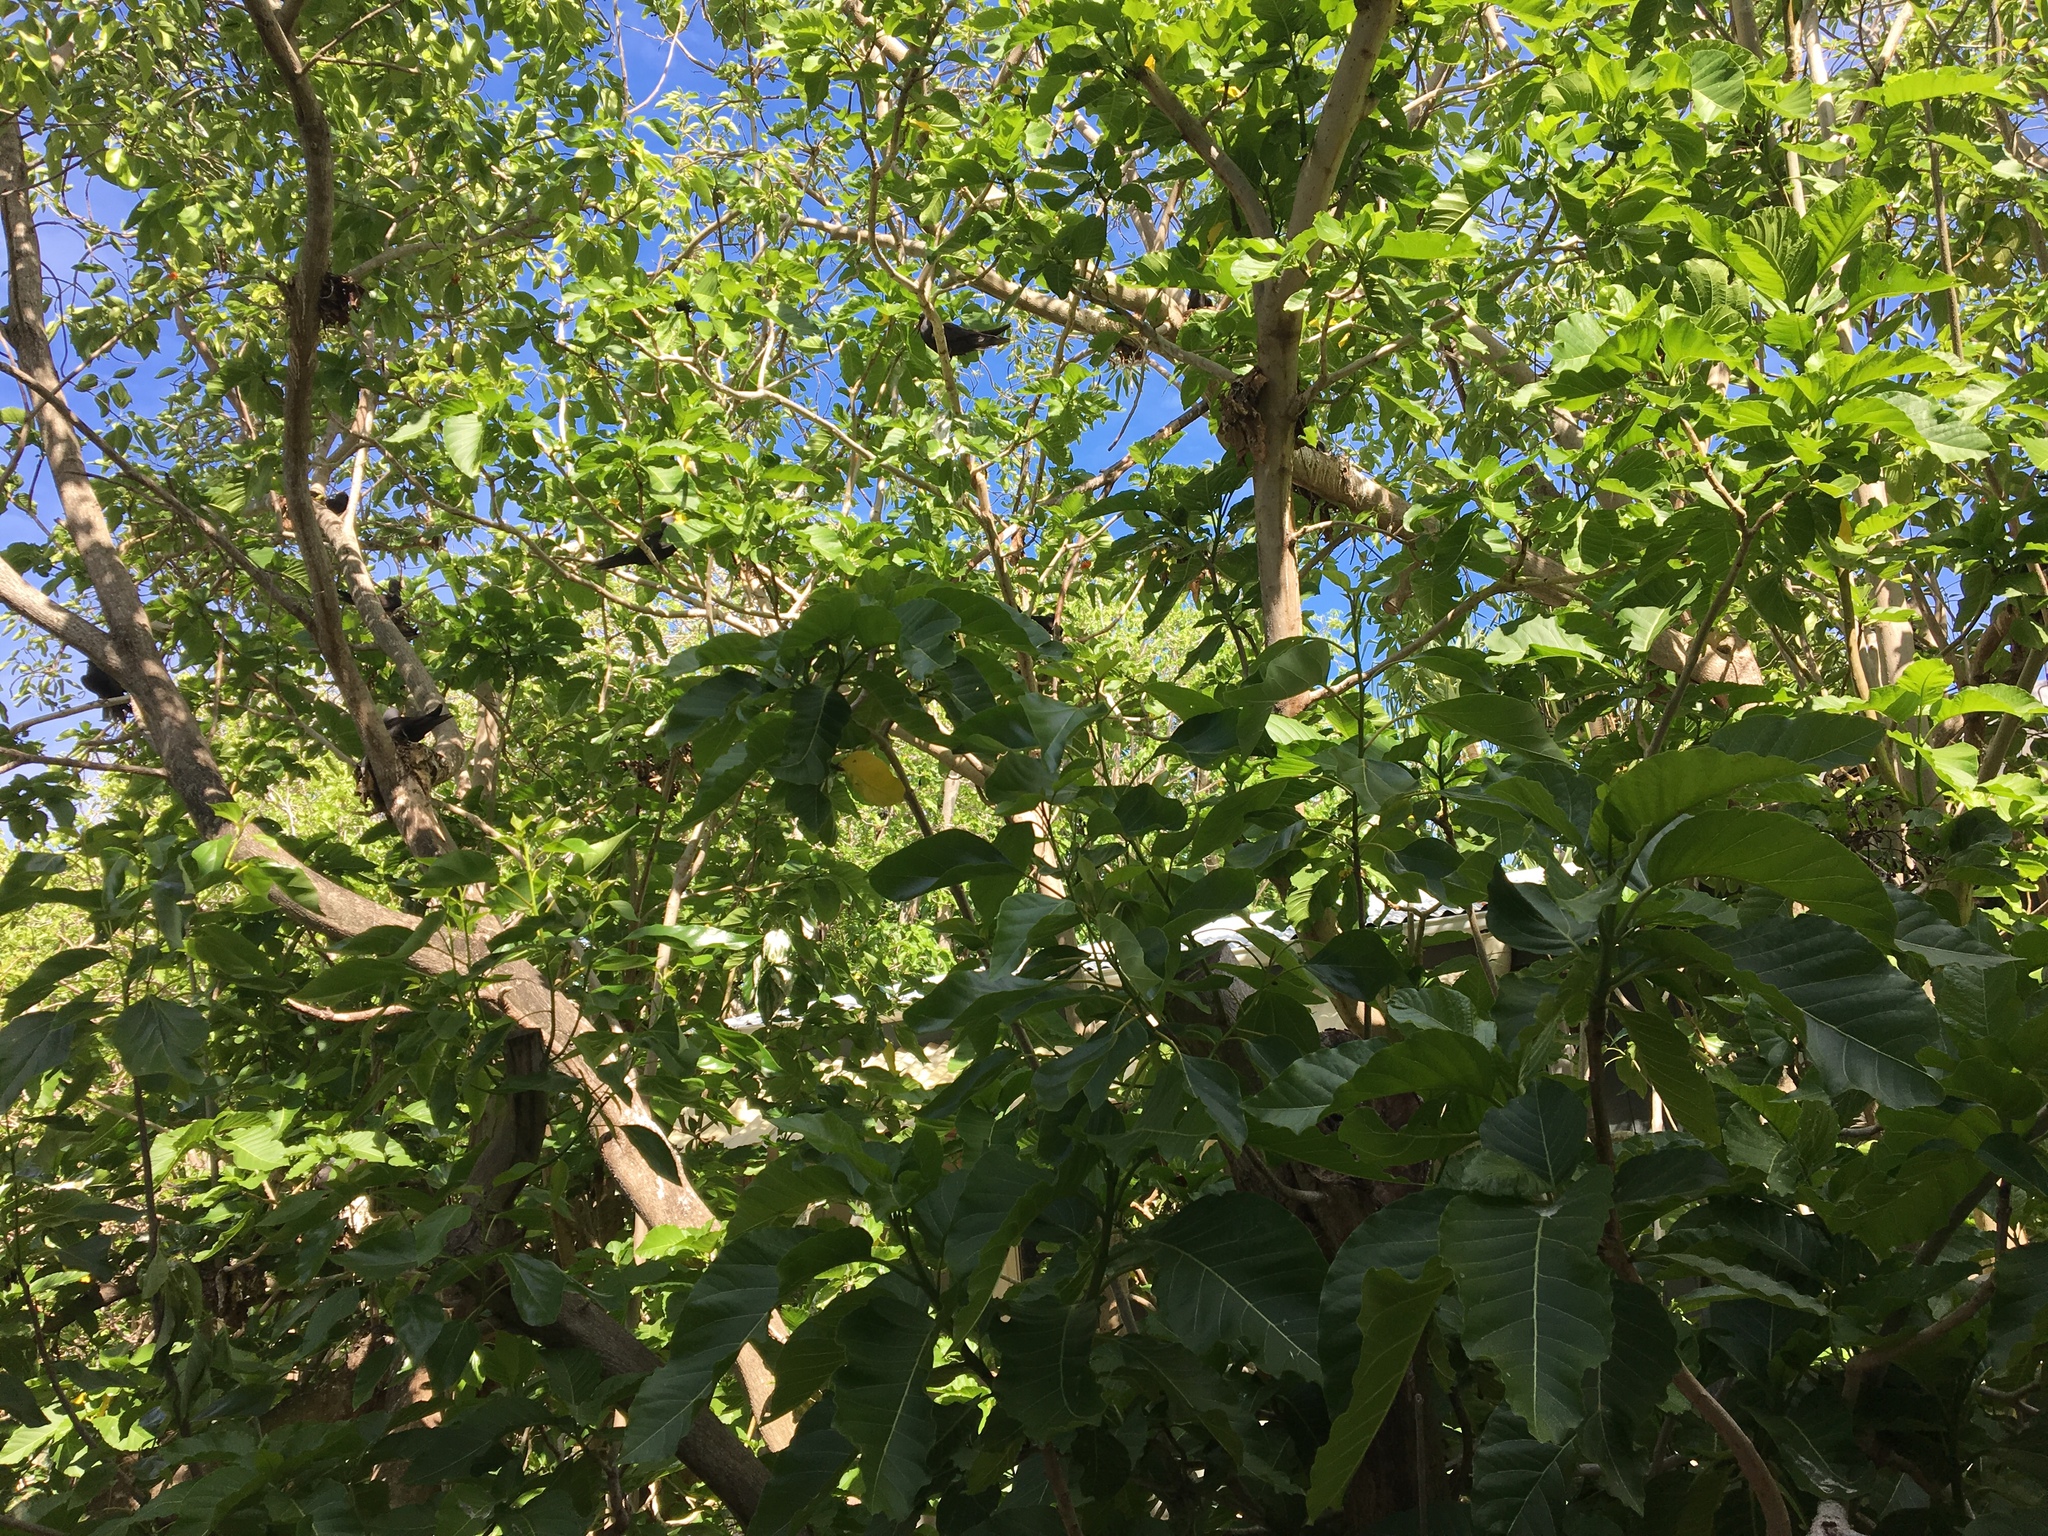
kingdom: Plantae
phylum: Tracheophyta
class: Magnoliopsida
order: Caryophyllales
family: Nyctaginaceae
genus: Ceodes
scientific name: Ceodes
